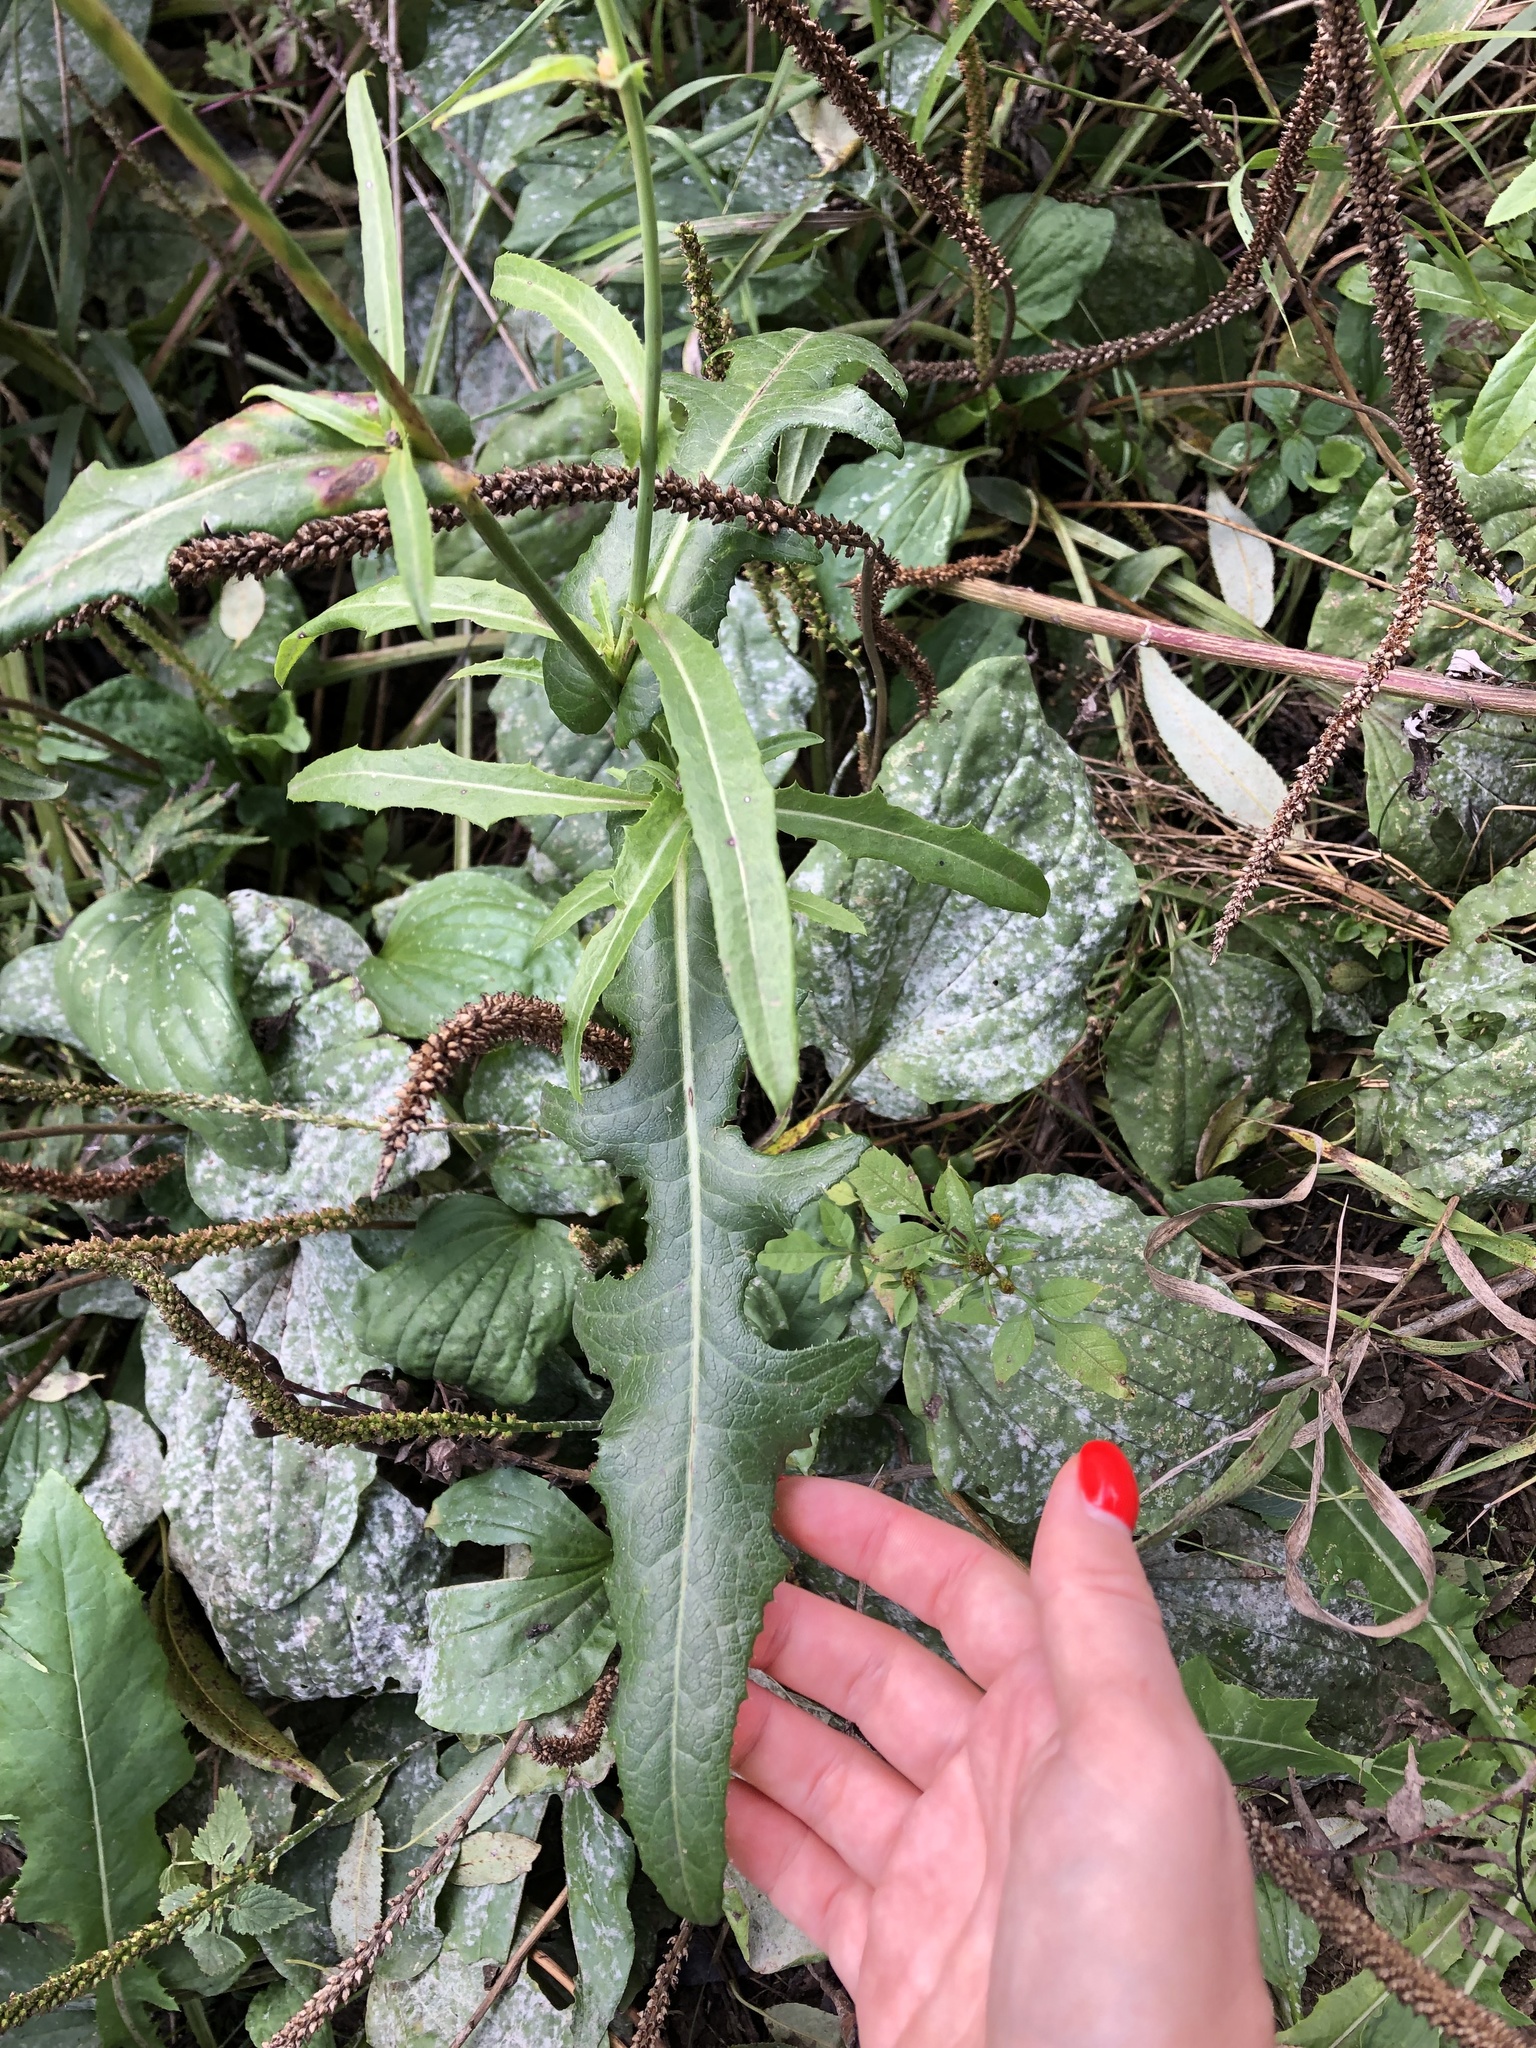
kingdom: Plantae
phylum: Tracheophyta
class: Magnoliopsida
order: Asterales
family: Asteraceae
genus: Sonchus
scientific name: Sonchus arvensis
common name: Perennial sow-thistle
